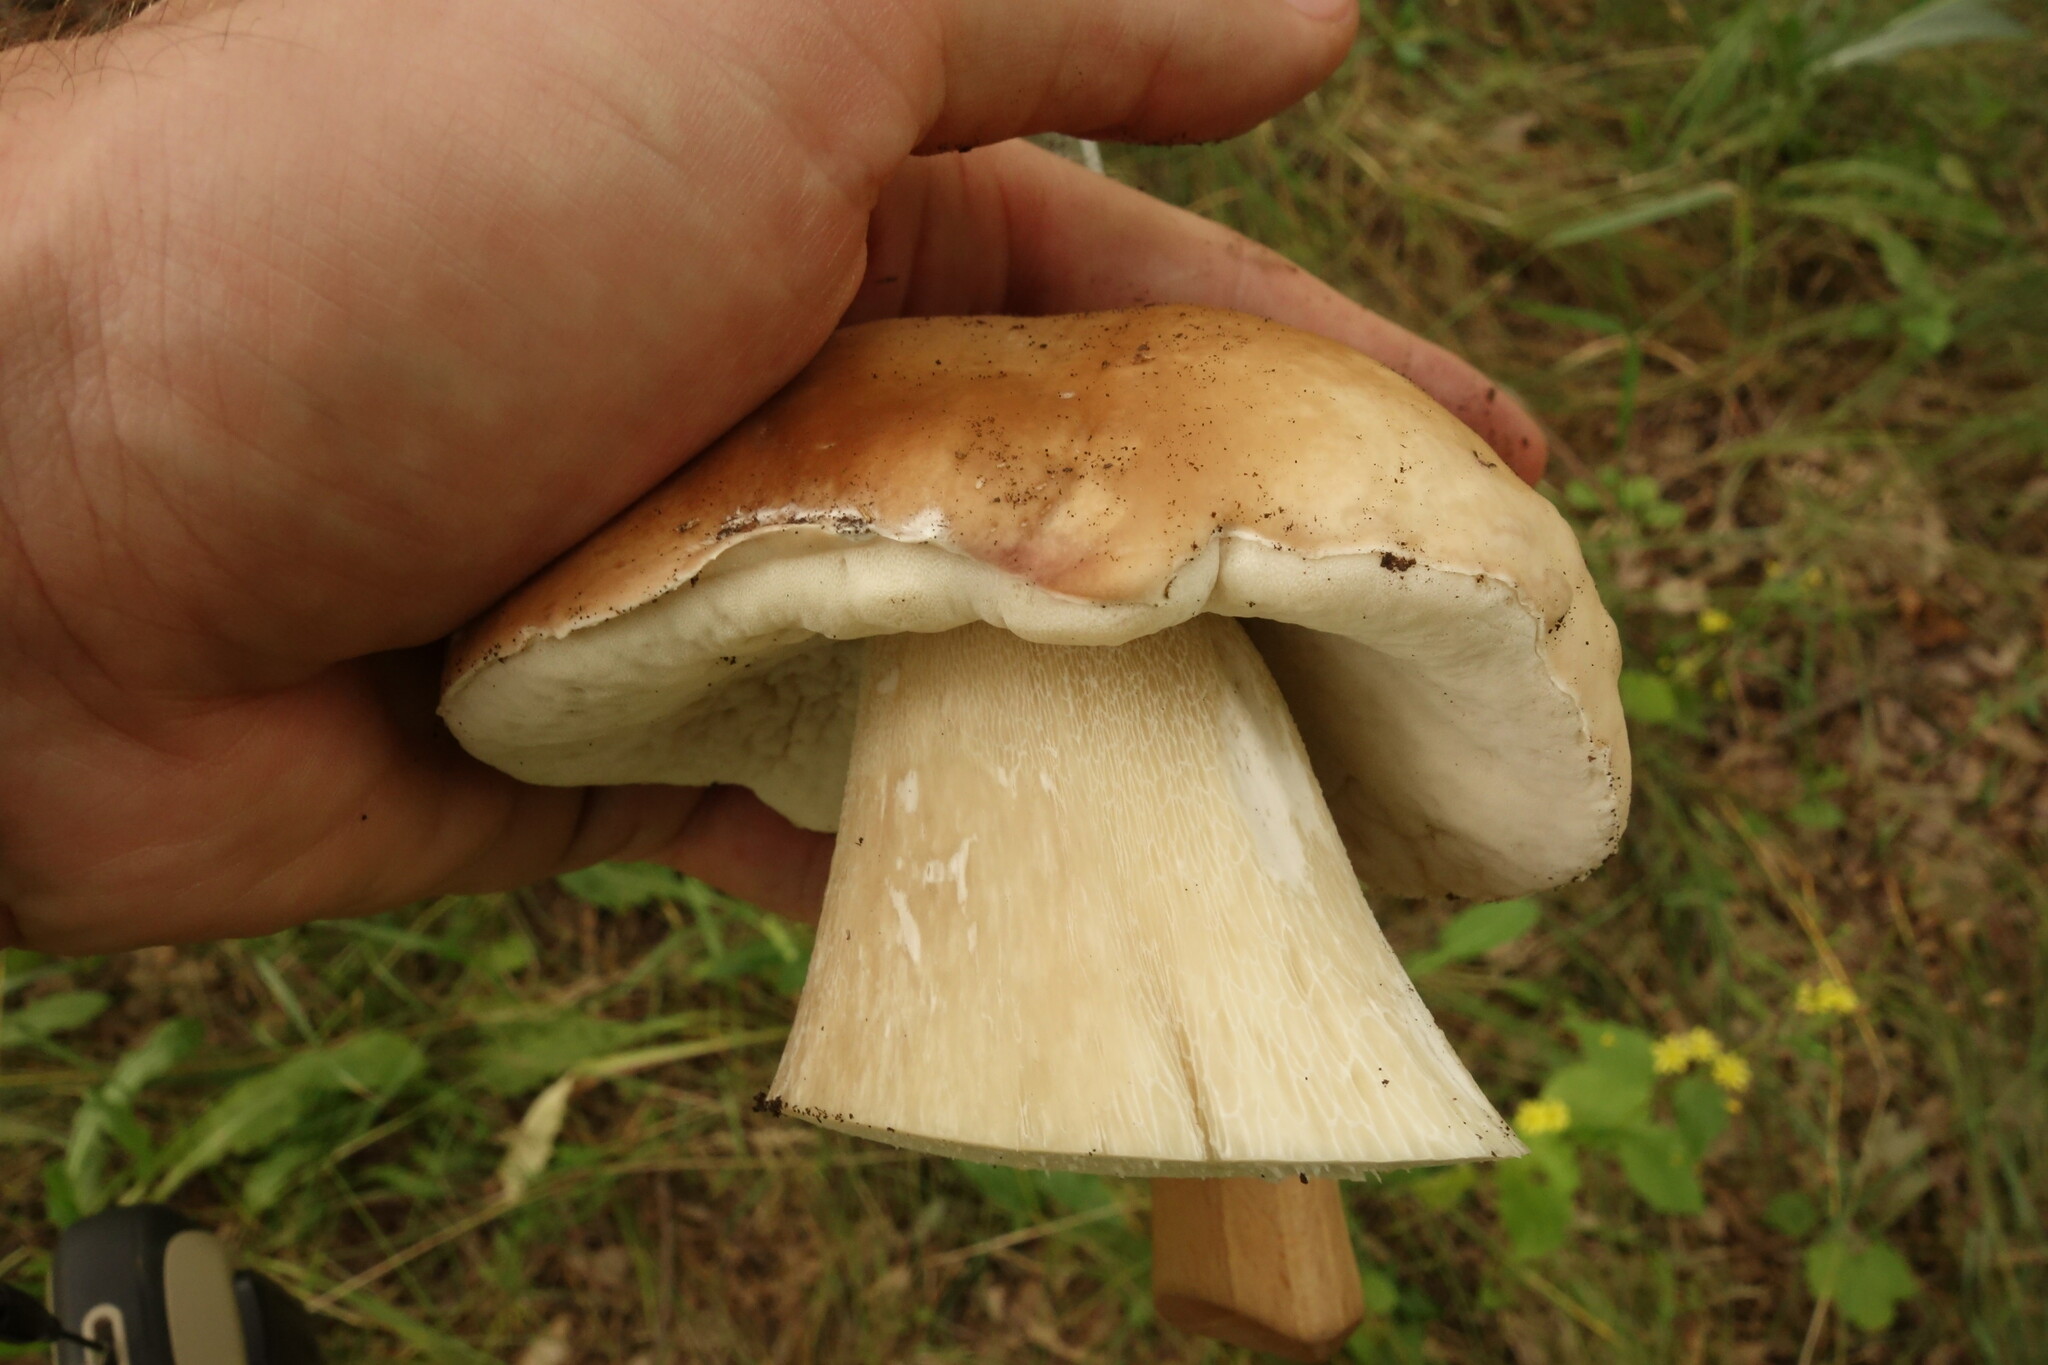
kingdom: Fungi
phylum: Basidiomycota
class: Agaricomycetes
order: Boletales
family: Boletaceae
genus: Boletus
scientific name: Boletus edulis
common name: Cep
